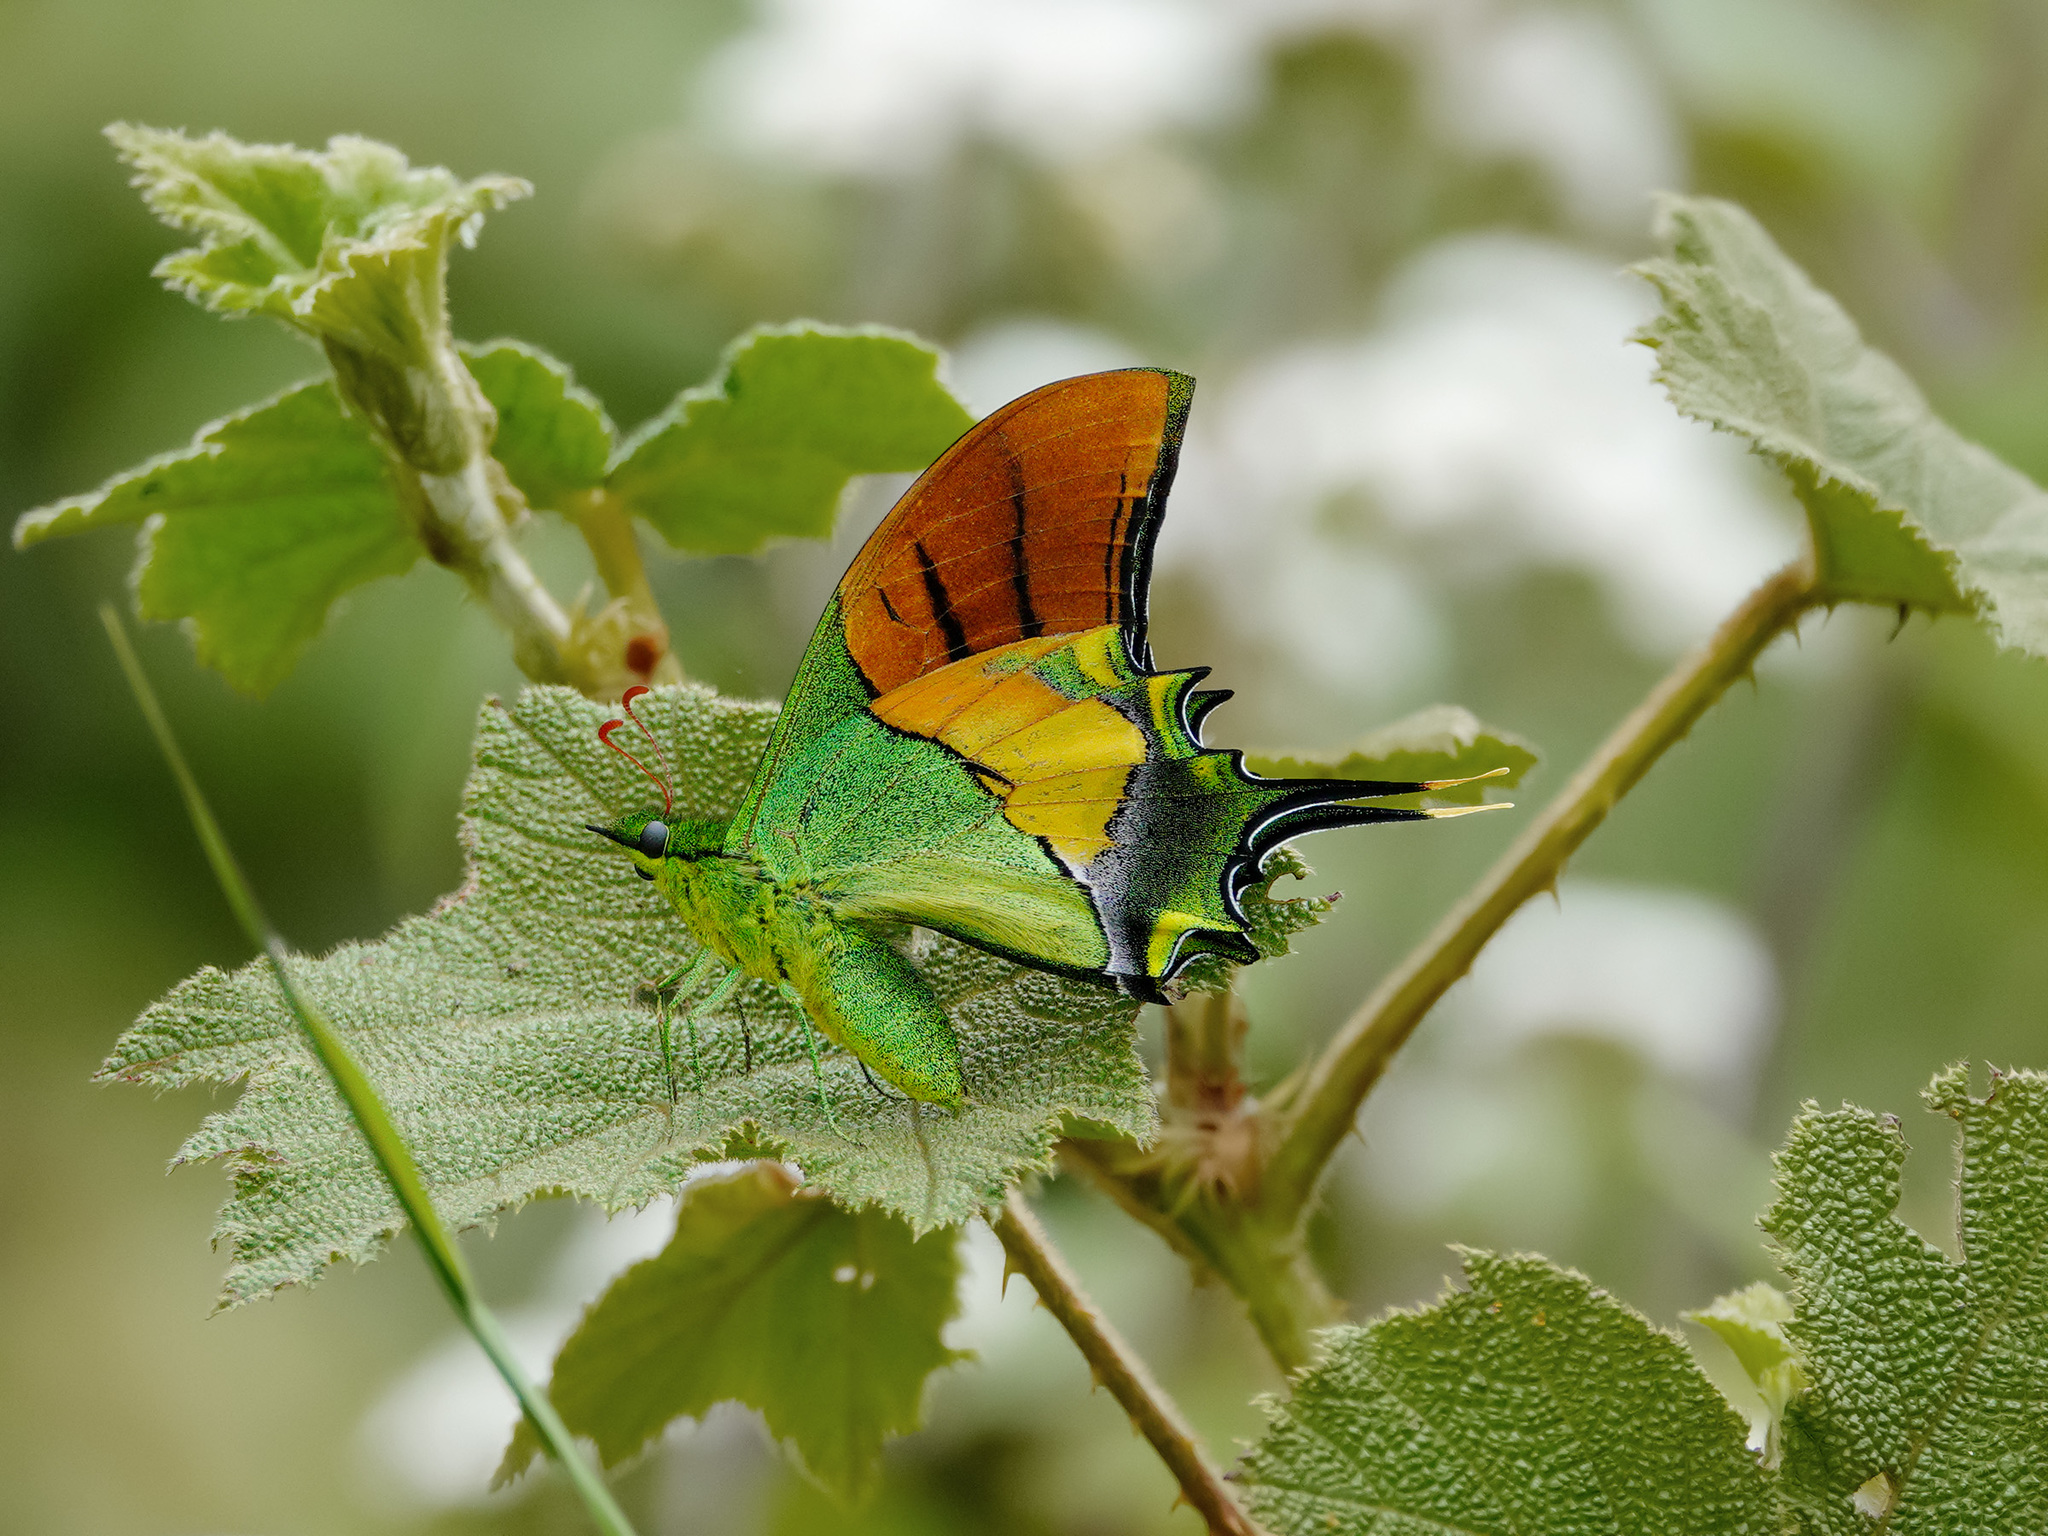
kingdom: Animalia
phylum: Arthropoda
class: Insecta
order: Lepidoptera
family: Papilionidae
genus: Teinopalpus
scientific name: Teinopalpus imperialis
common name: Kaiser-i-hind
